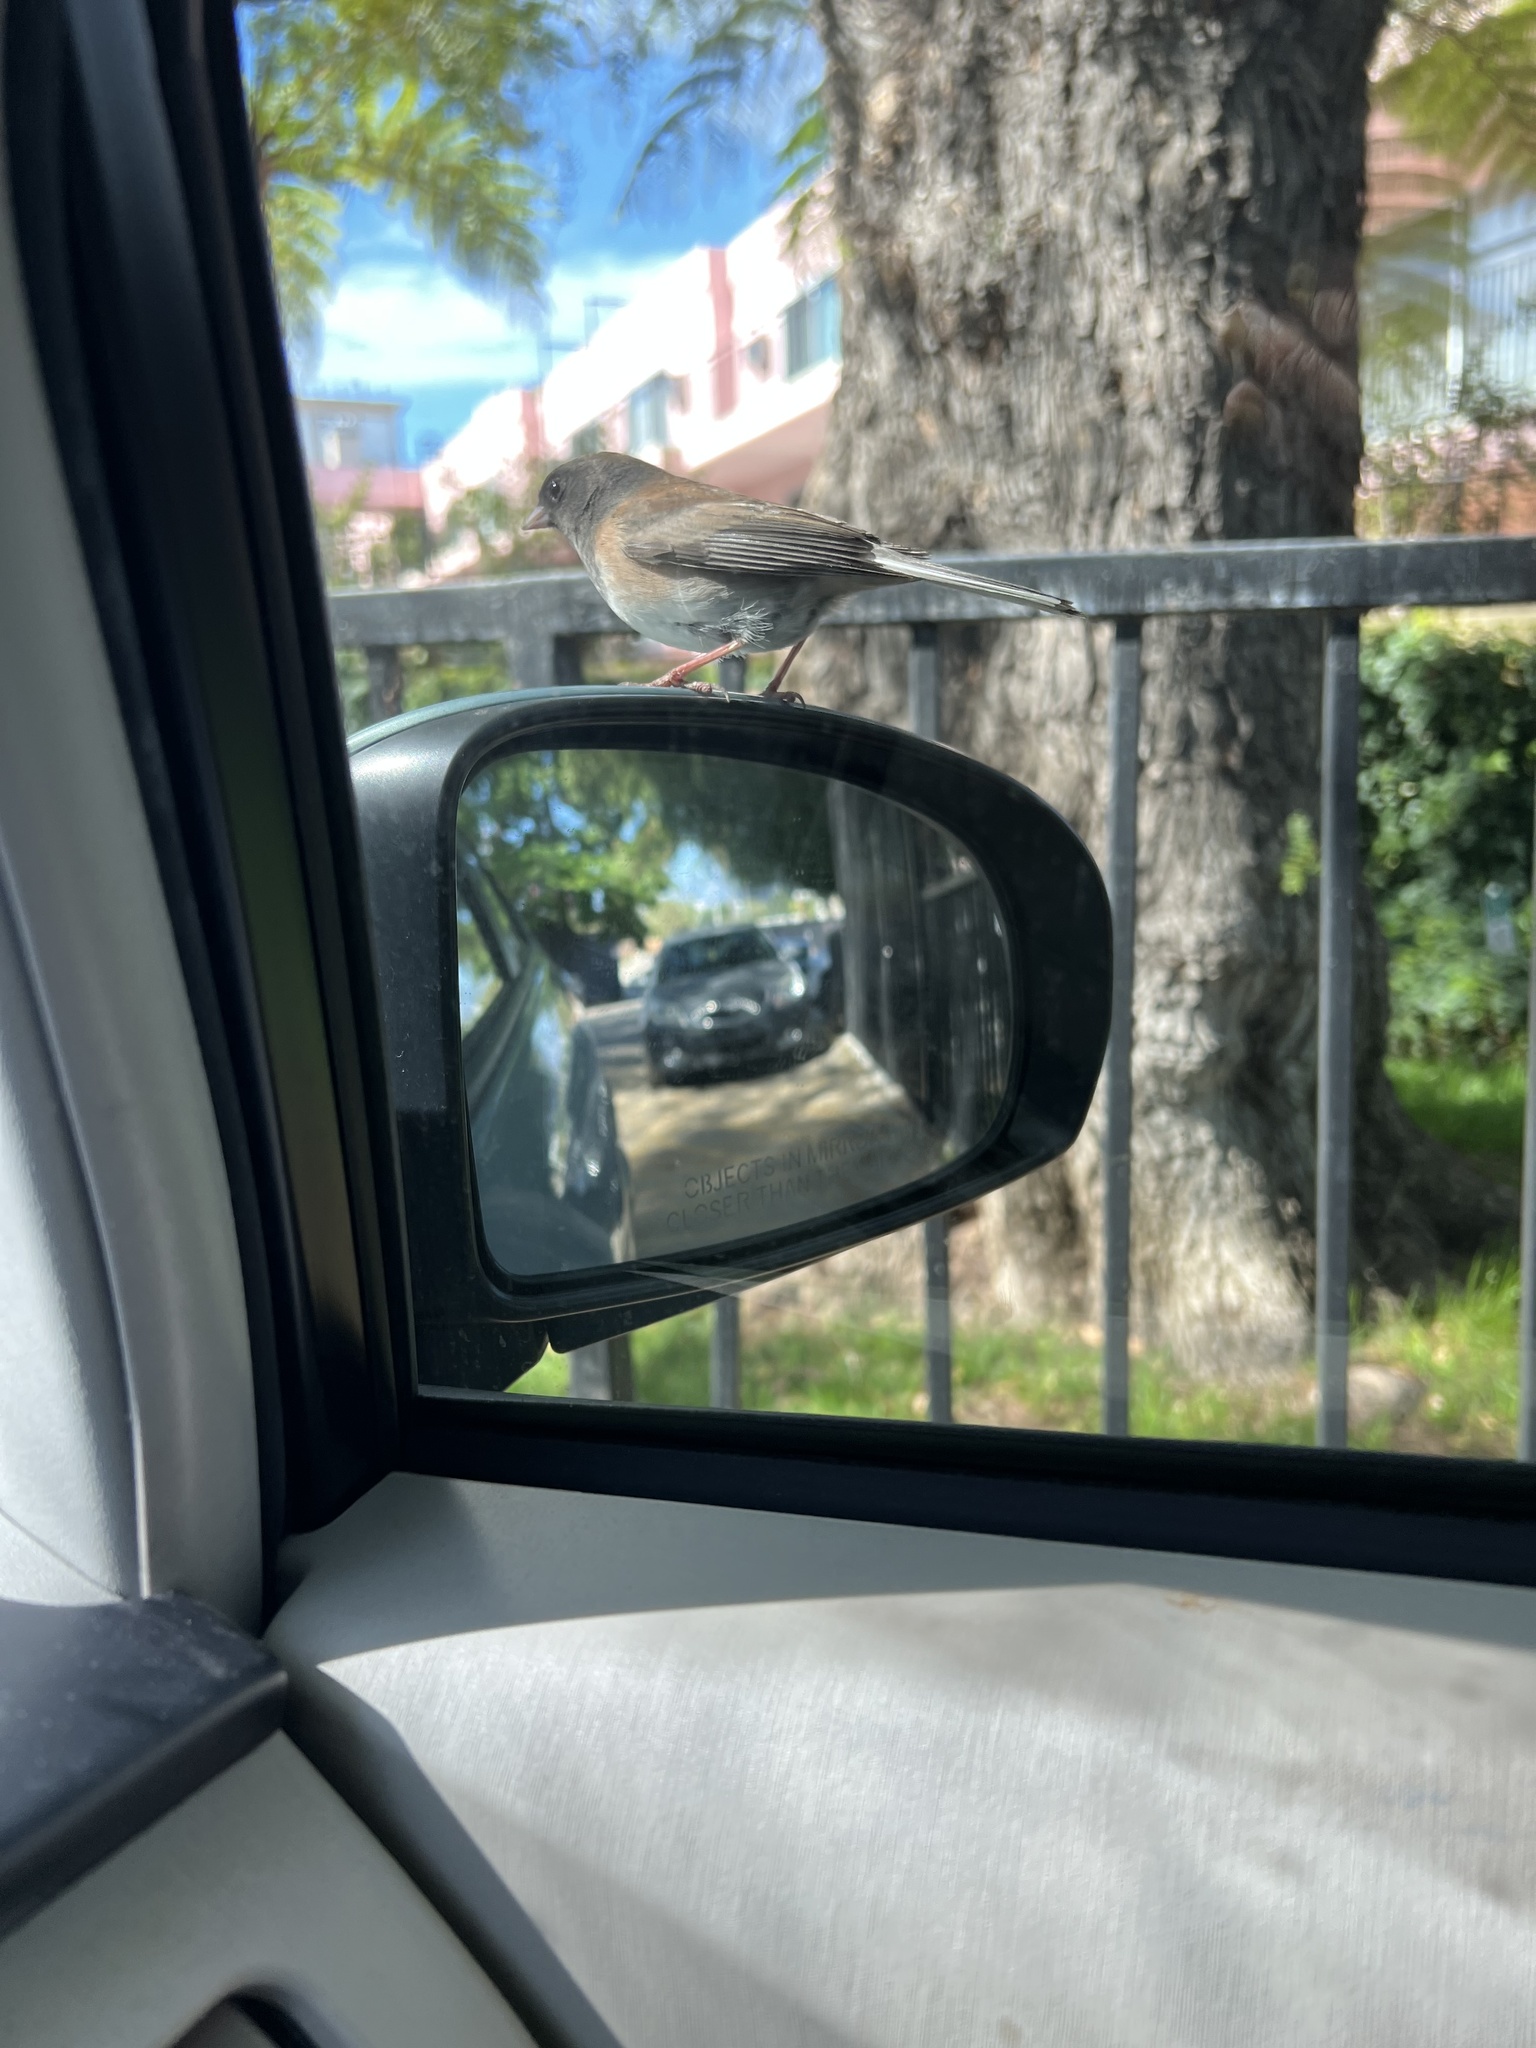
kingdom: Animalia
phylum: Chordata
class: Aves
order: Passeriformes
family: Passerellidae
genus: Junco
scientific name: Junco hyemalis
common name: Dark-eyed junco
